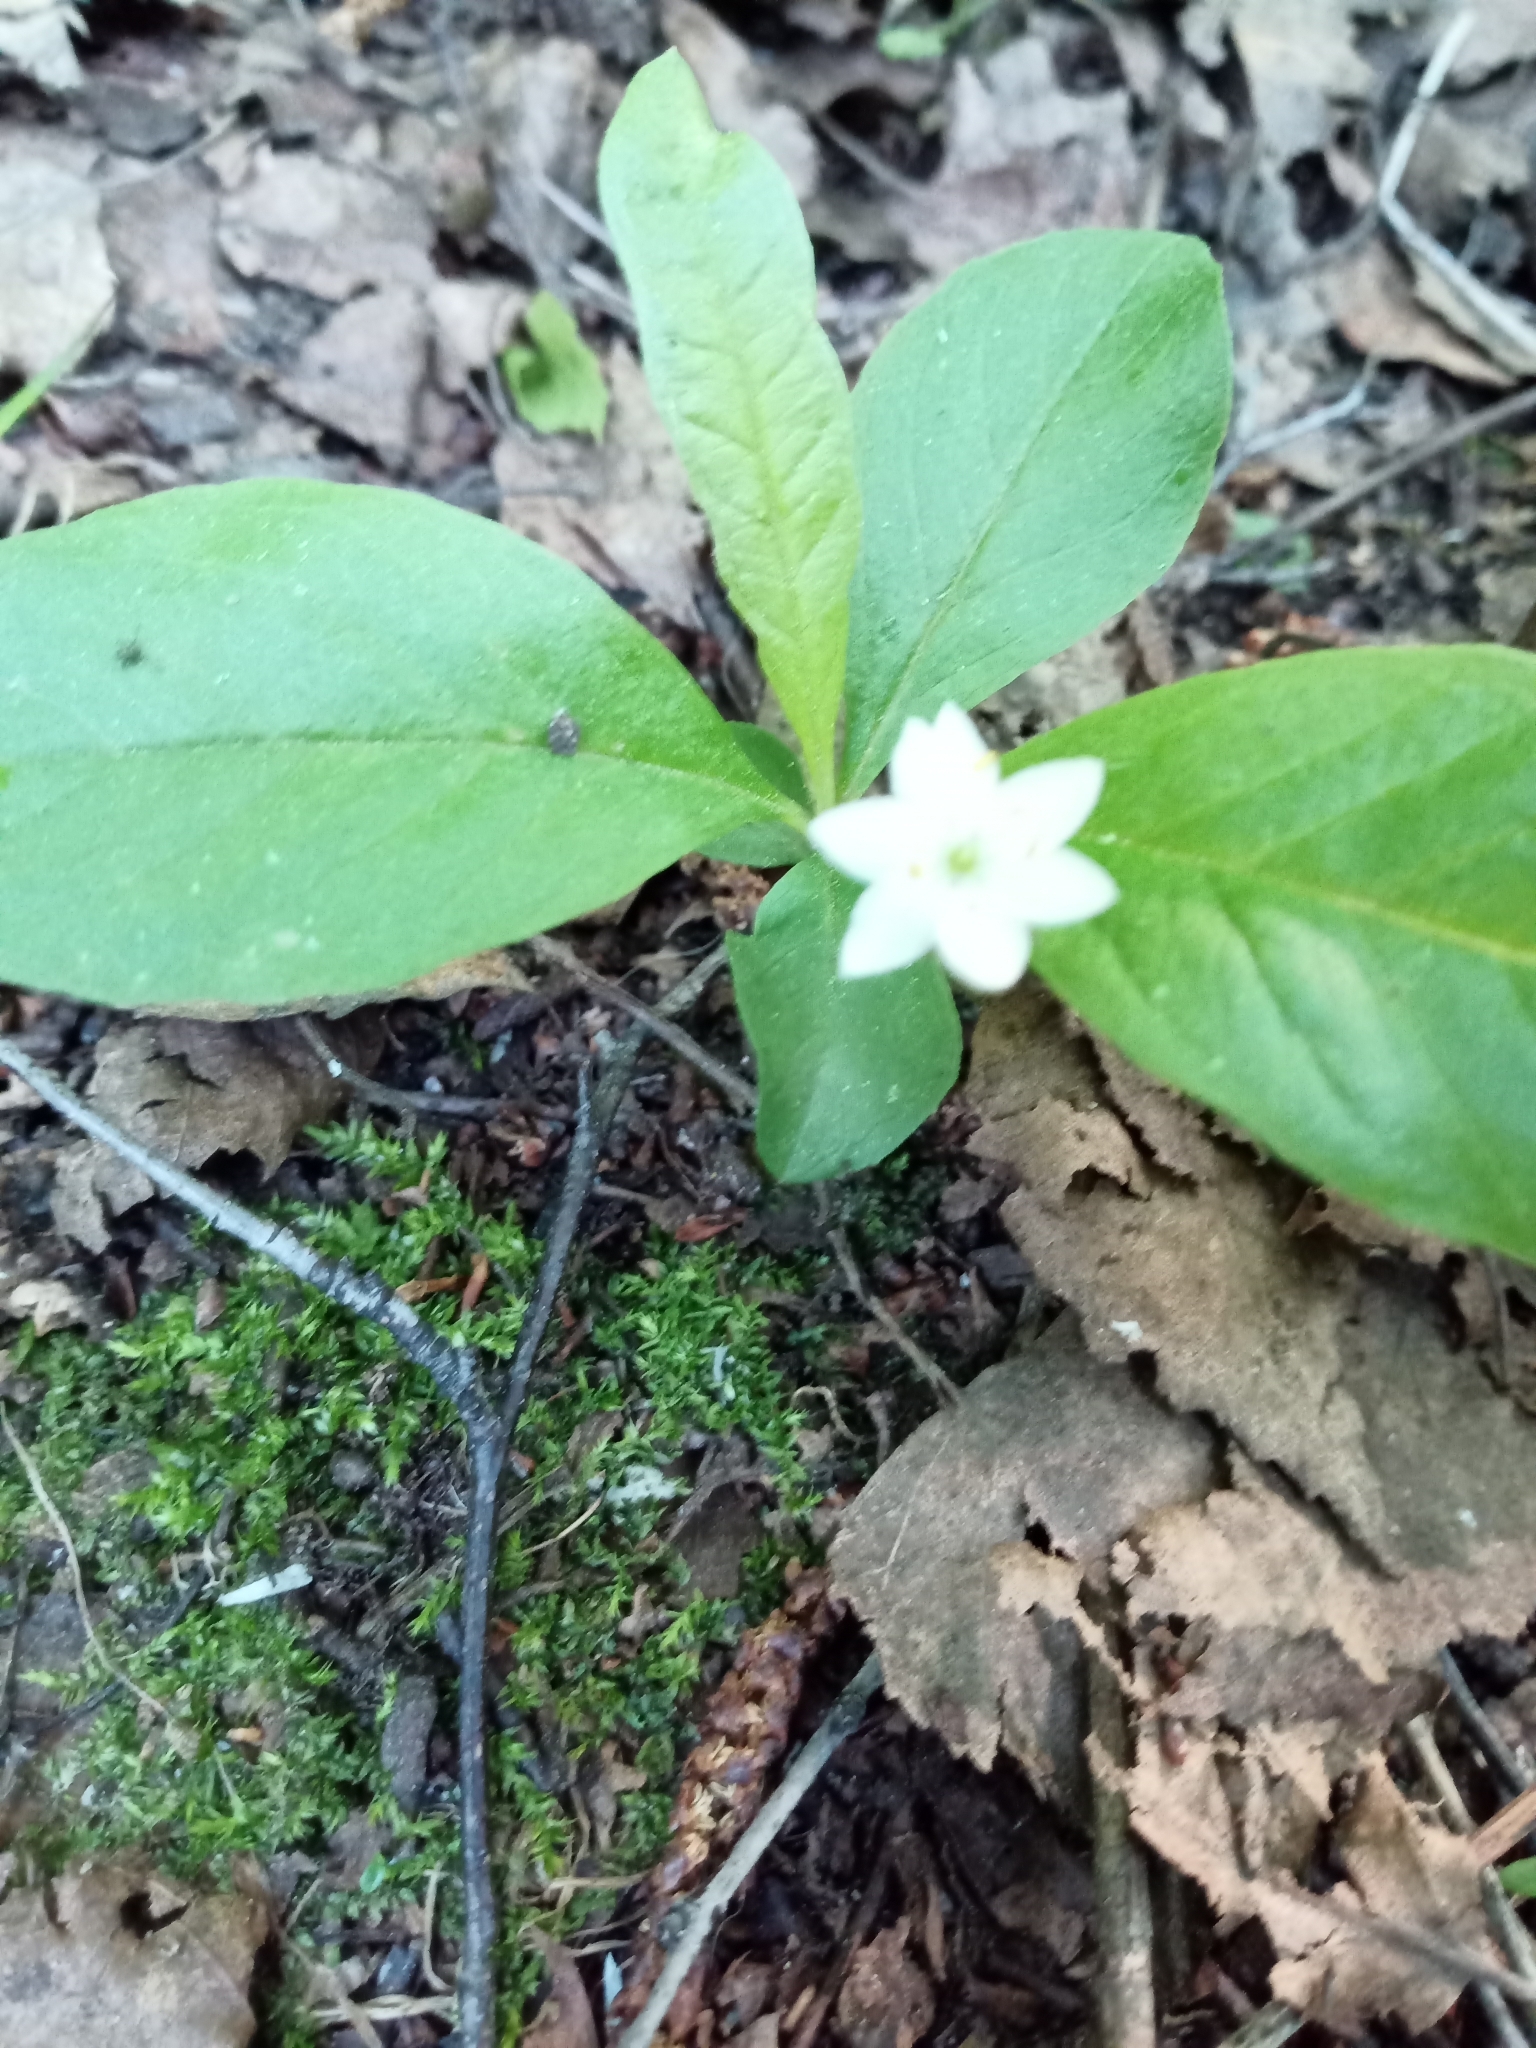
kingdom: Plantae
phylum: Tracheophyta
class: Magnoliopsida
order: Ericales
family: Primulaceae
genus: Lysimachia
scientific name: Lysimachia europaea
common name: Arctic starflower
